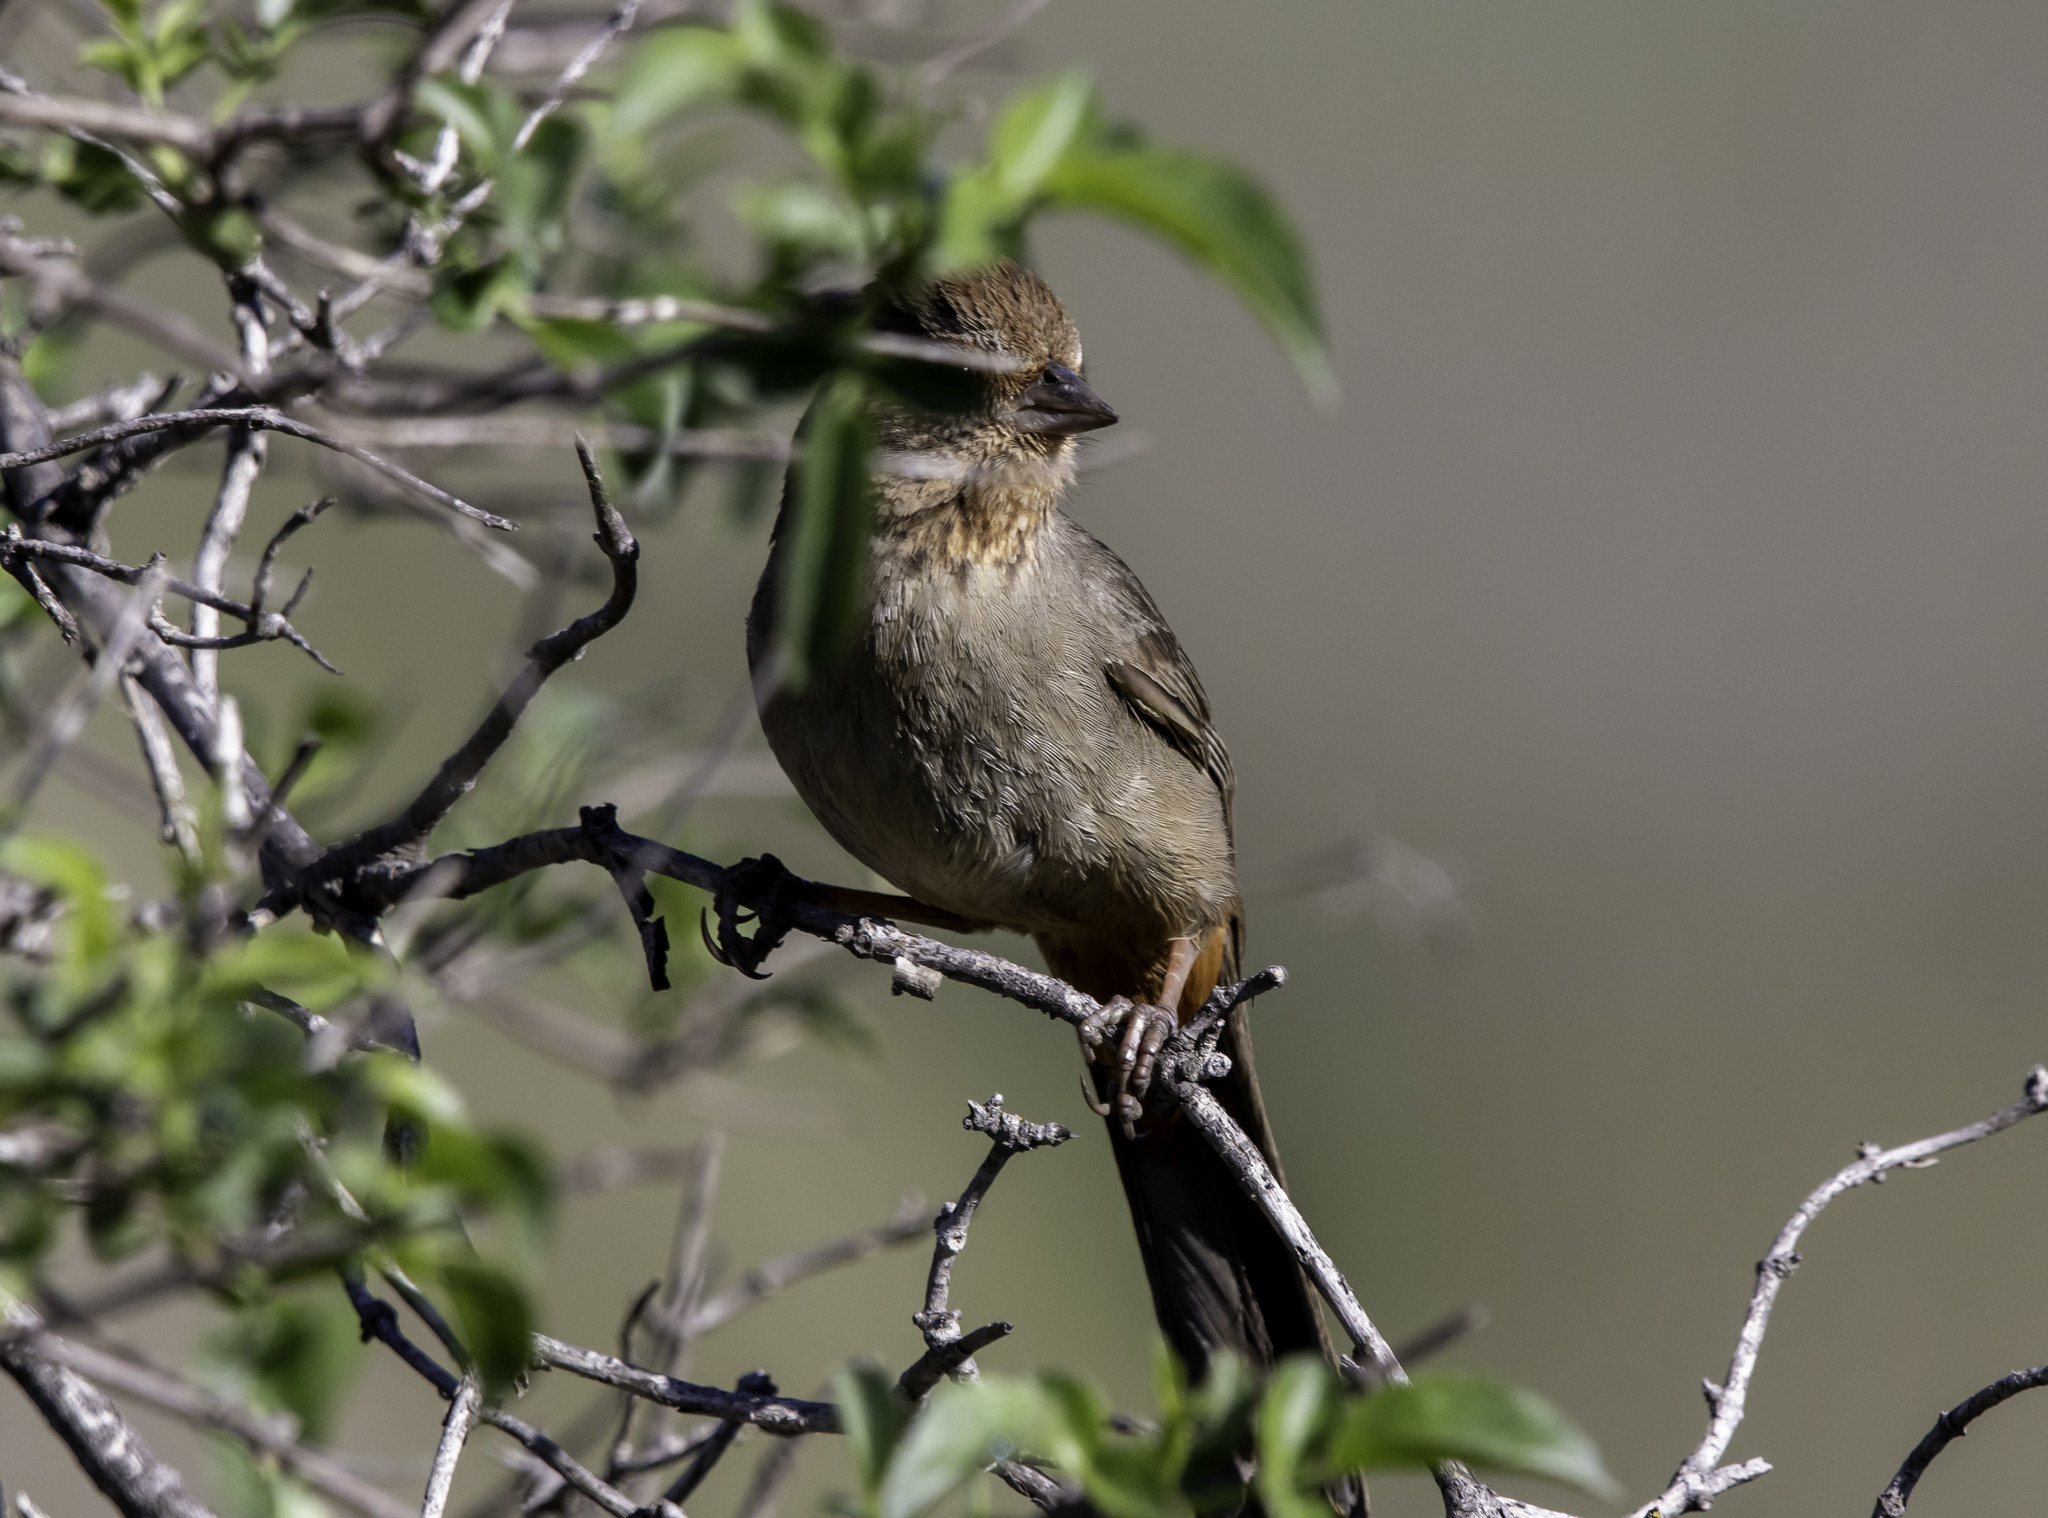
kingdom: Animalia
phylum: Chordata
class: Aves
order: Passeriformes
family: Passerellidae
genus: Melozone
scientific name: Melozone crissalis
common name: California towhee
